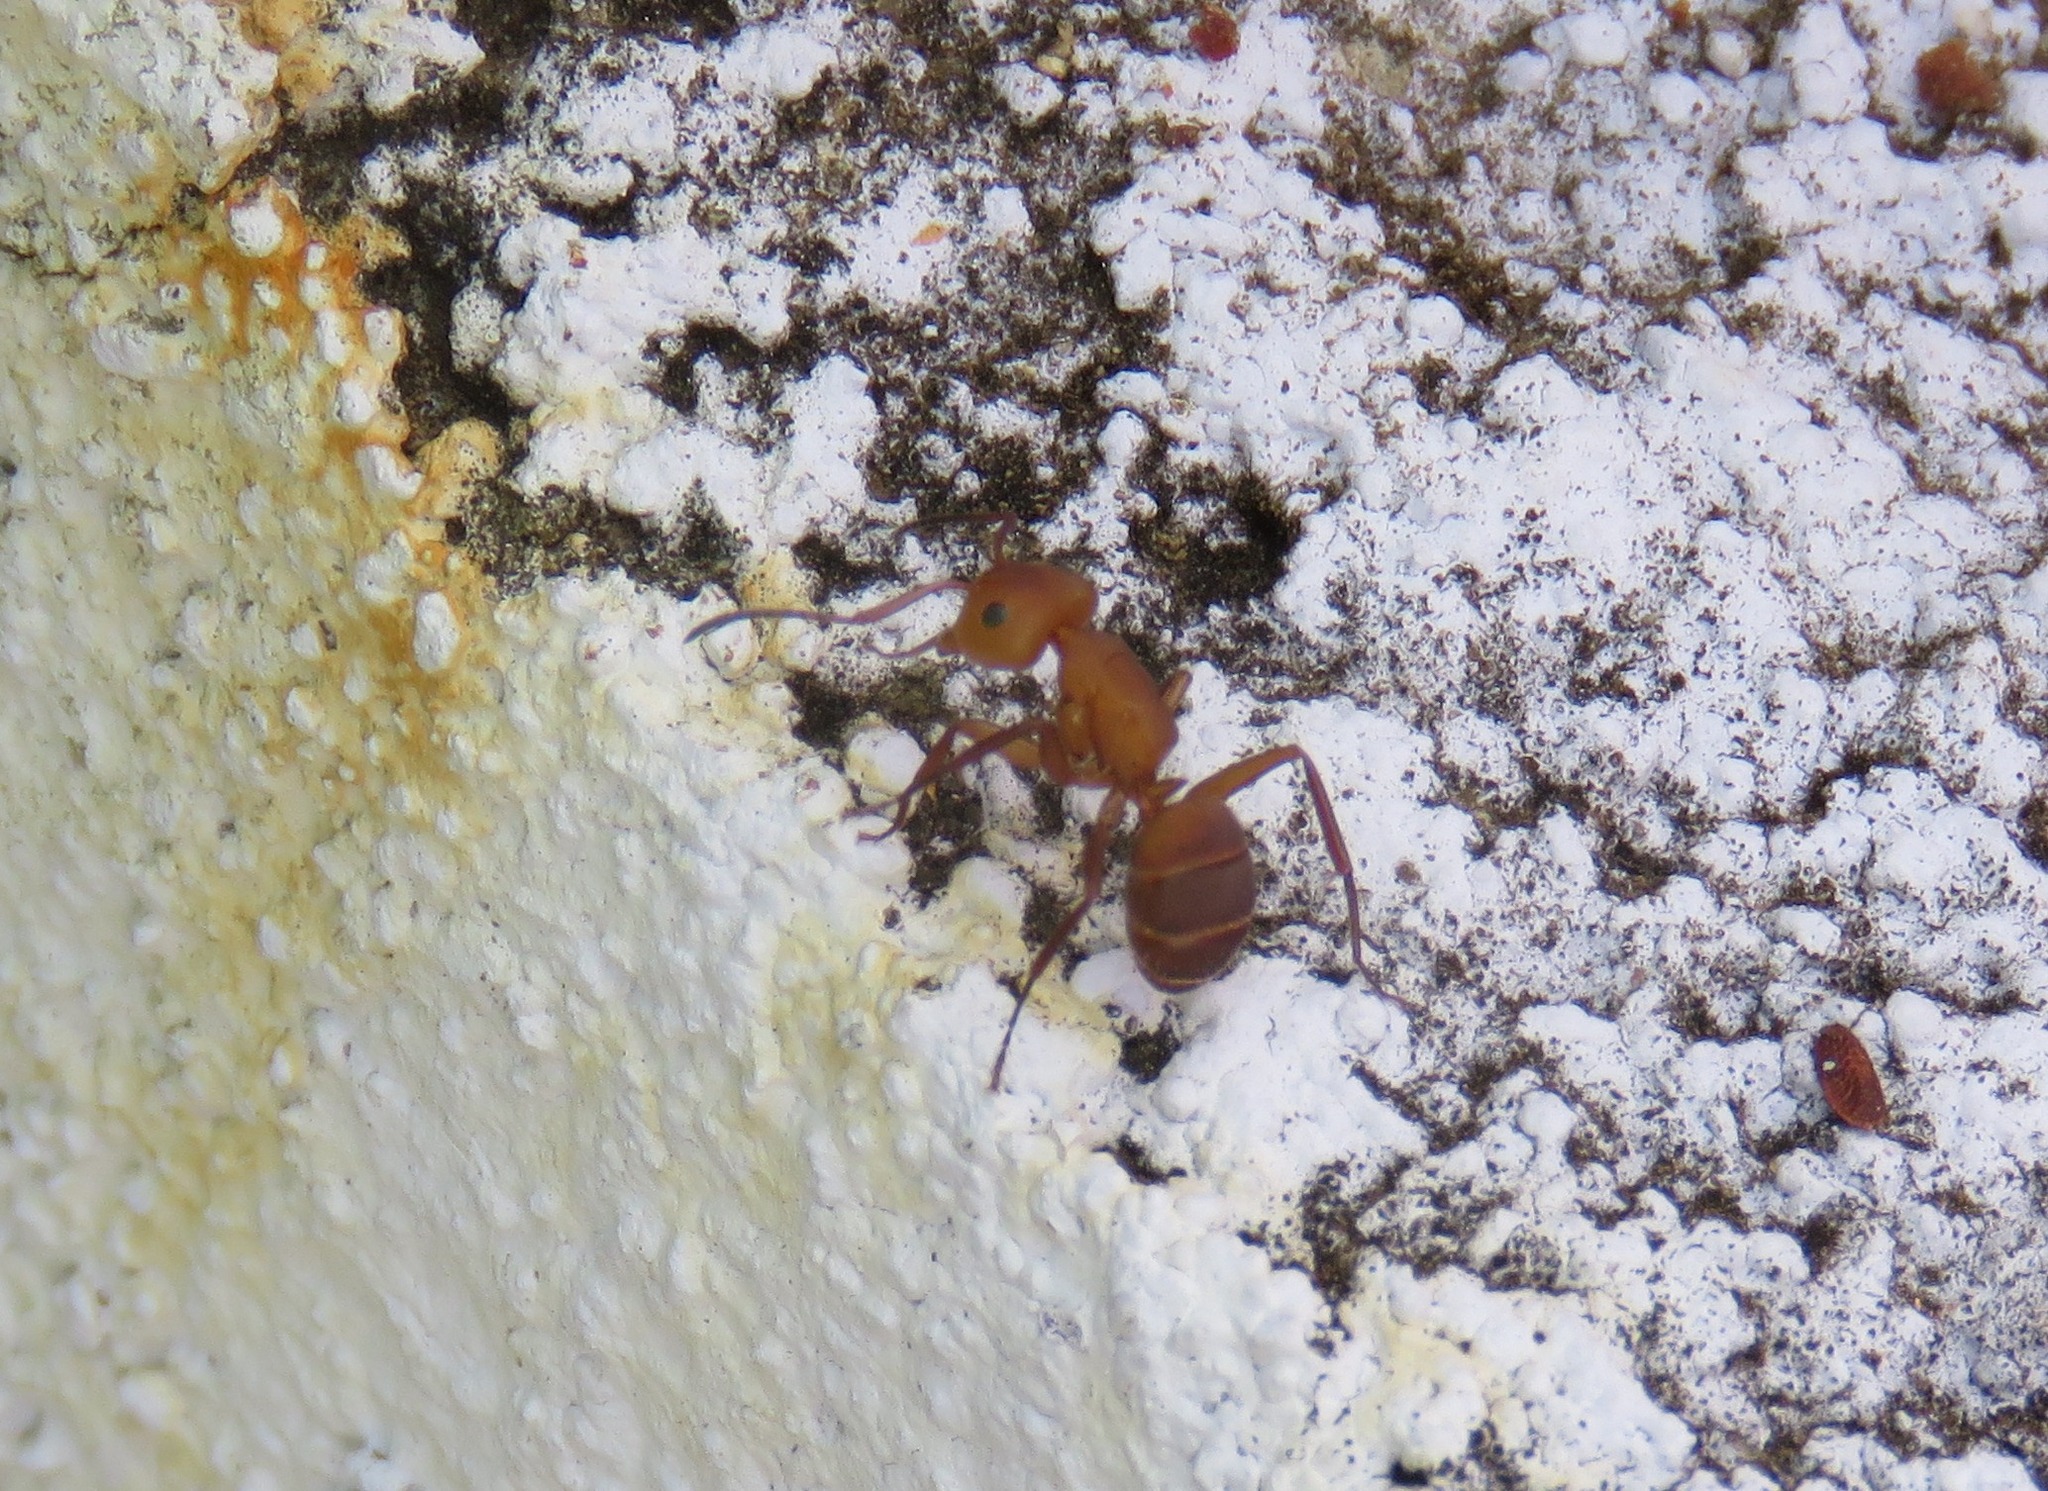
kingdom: Animalia
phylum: Arthropoda
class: Insecta
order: Hymenoptera
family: Formicidae
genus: Camponotus
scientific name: Camponotus rectangularis
